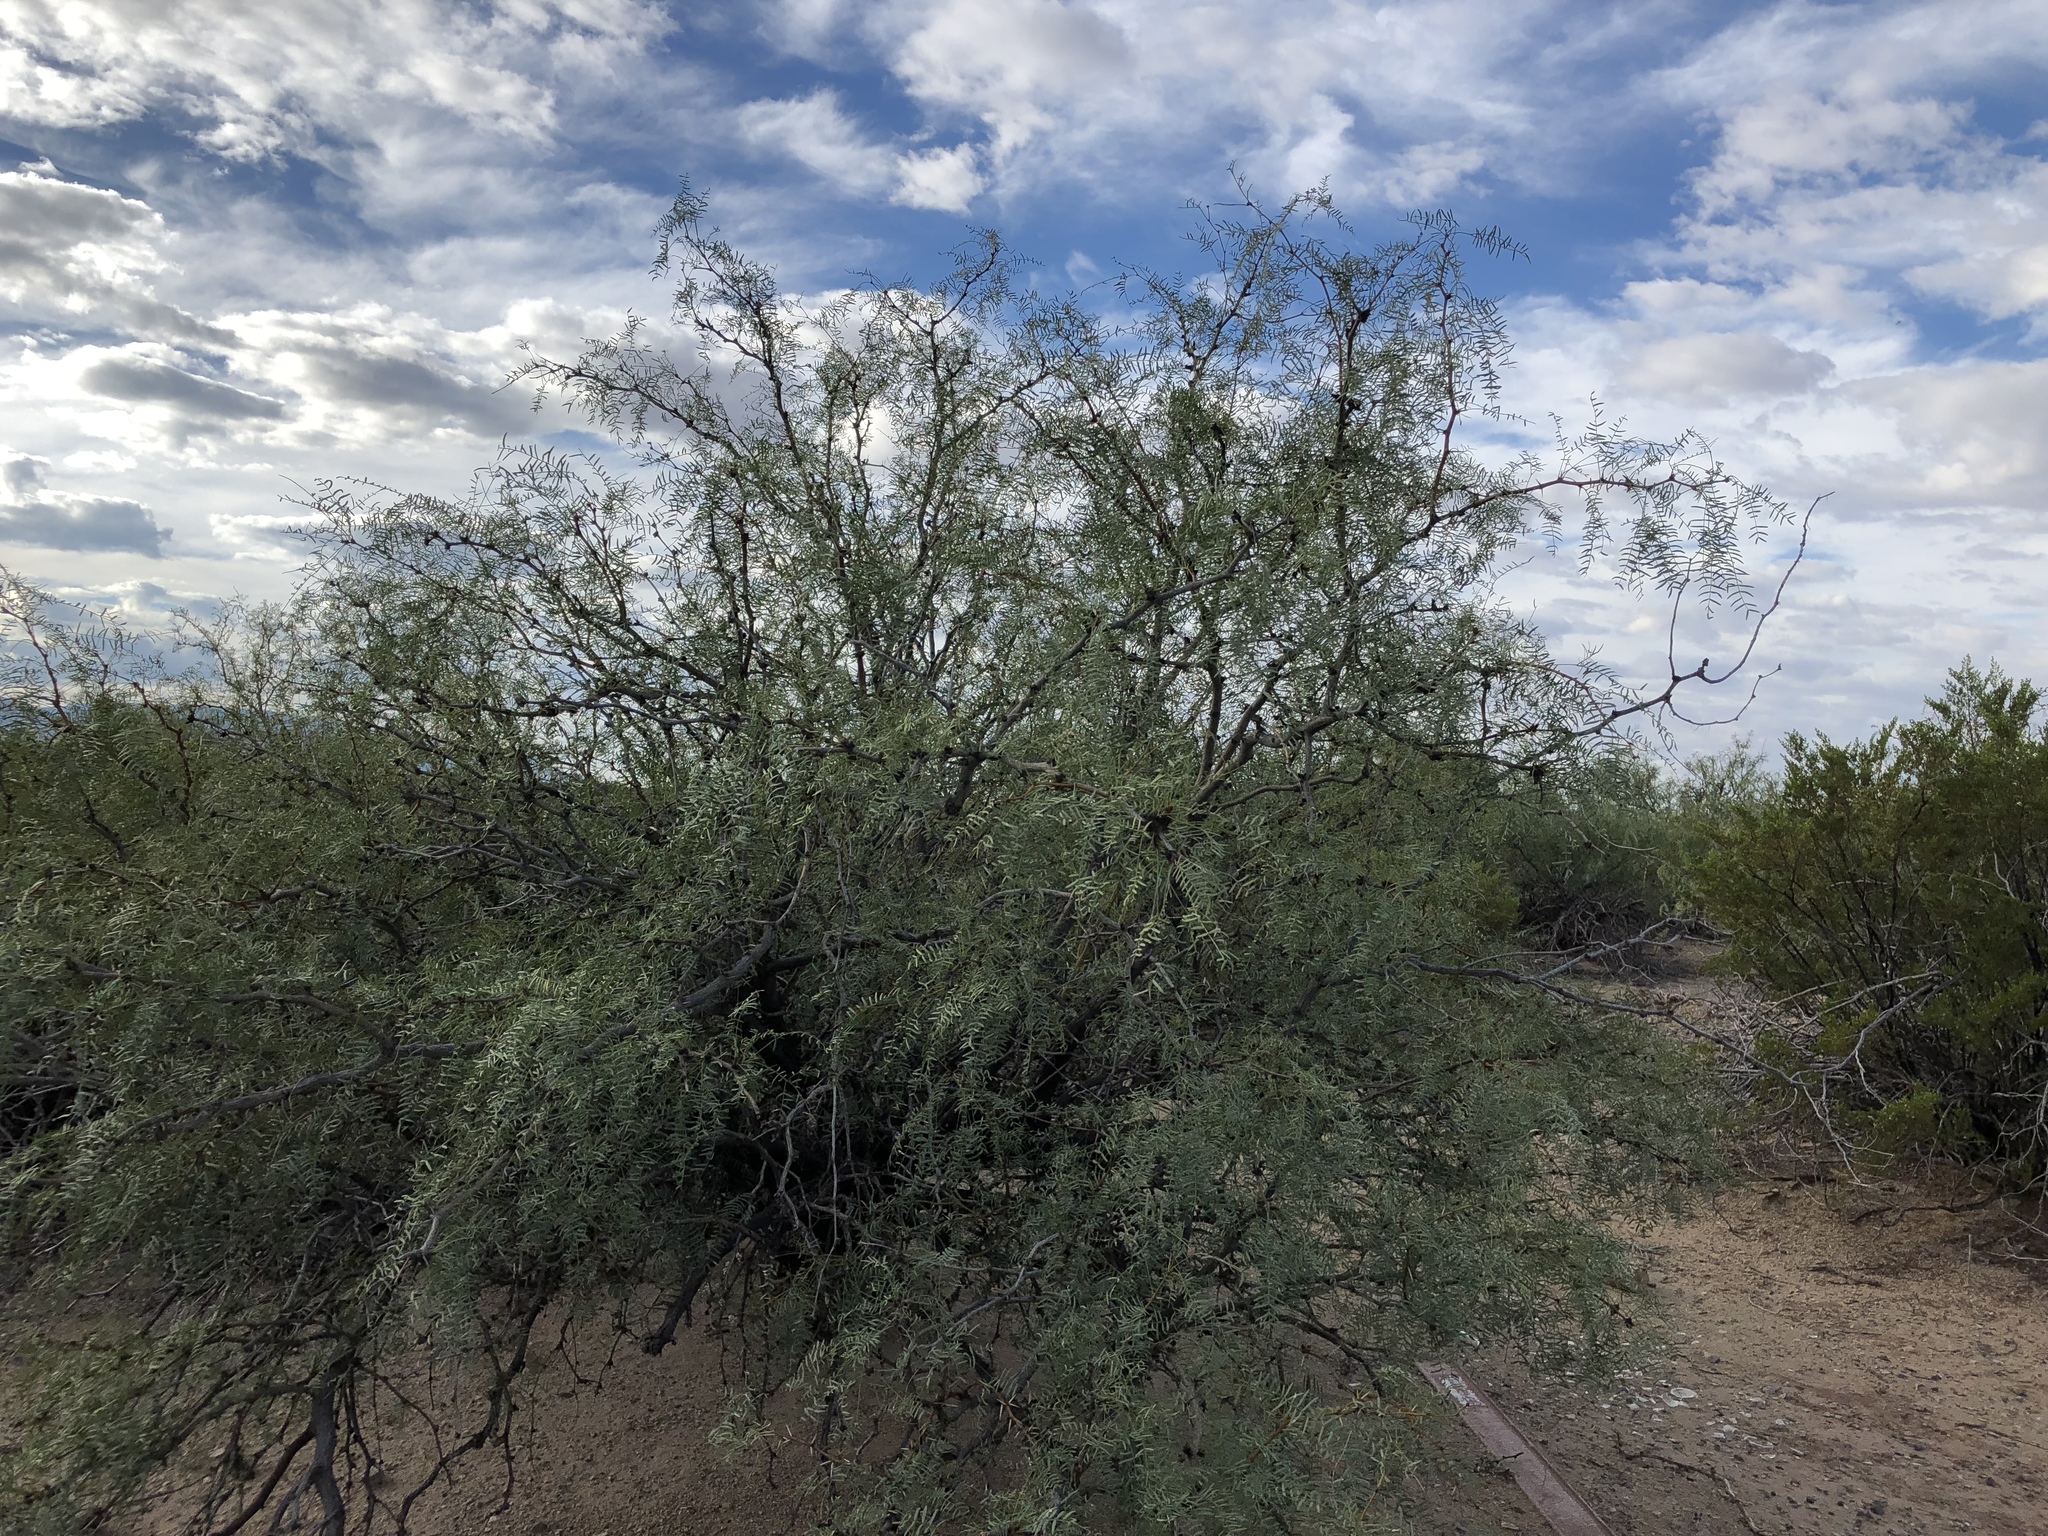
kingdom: Plantae
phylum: Tracheophyta
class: Magnoliopsida
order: Fabales
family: Fabaceae
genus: Prosopis
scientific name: Prosopis glandulosa
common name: Honey mesquite
